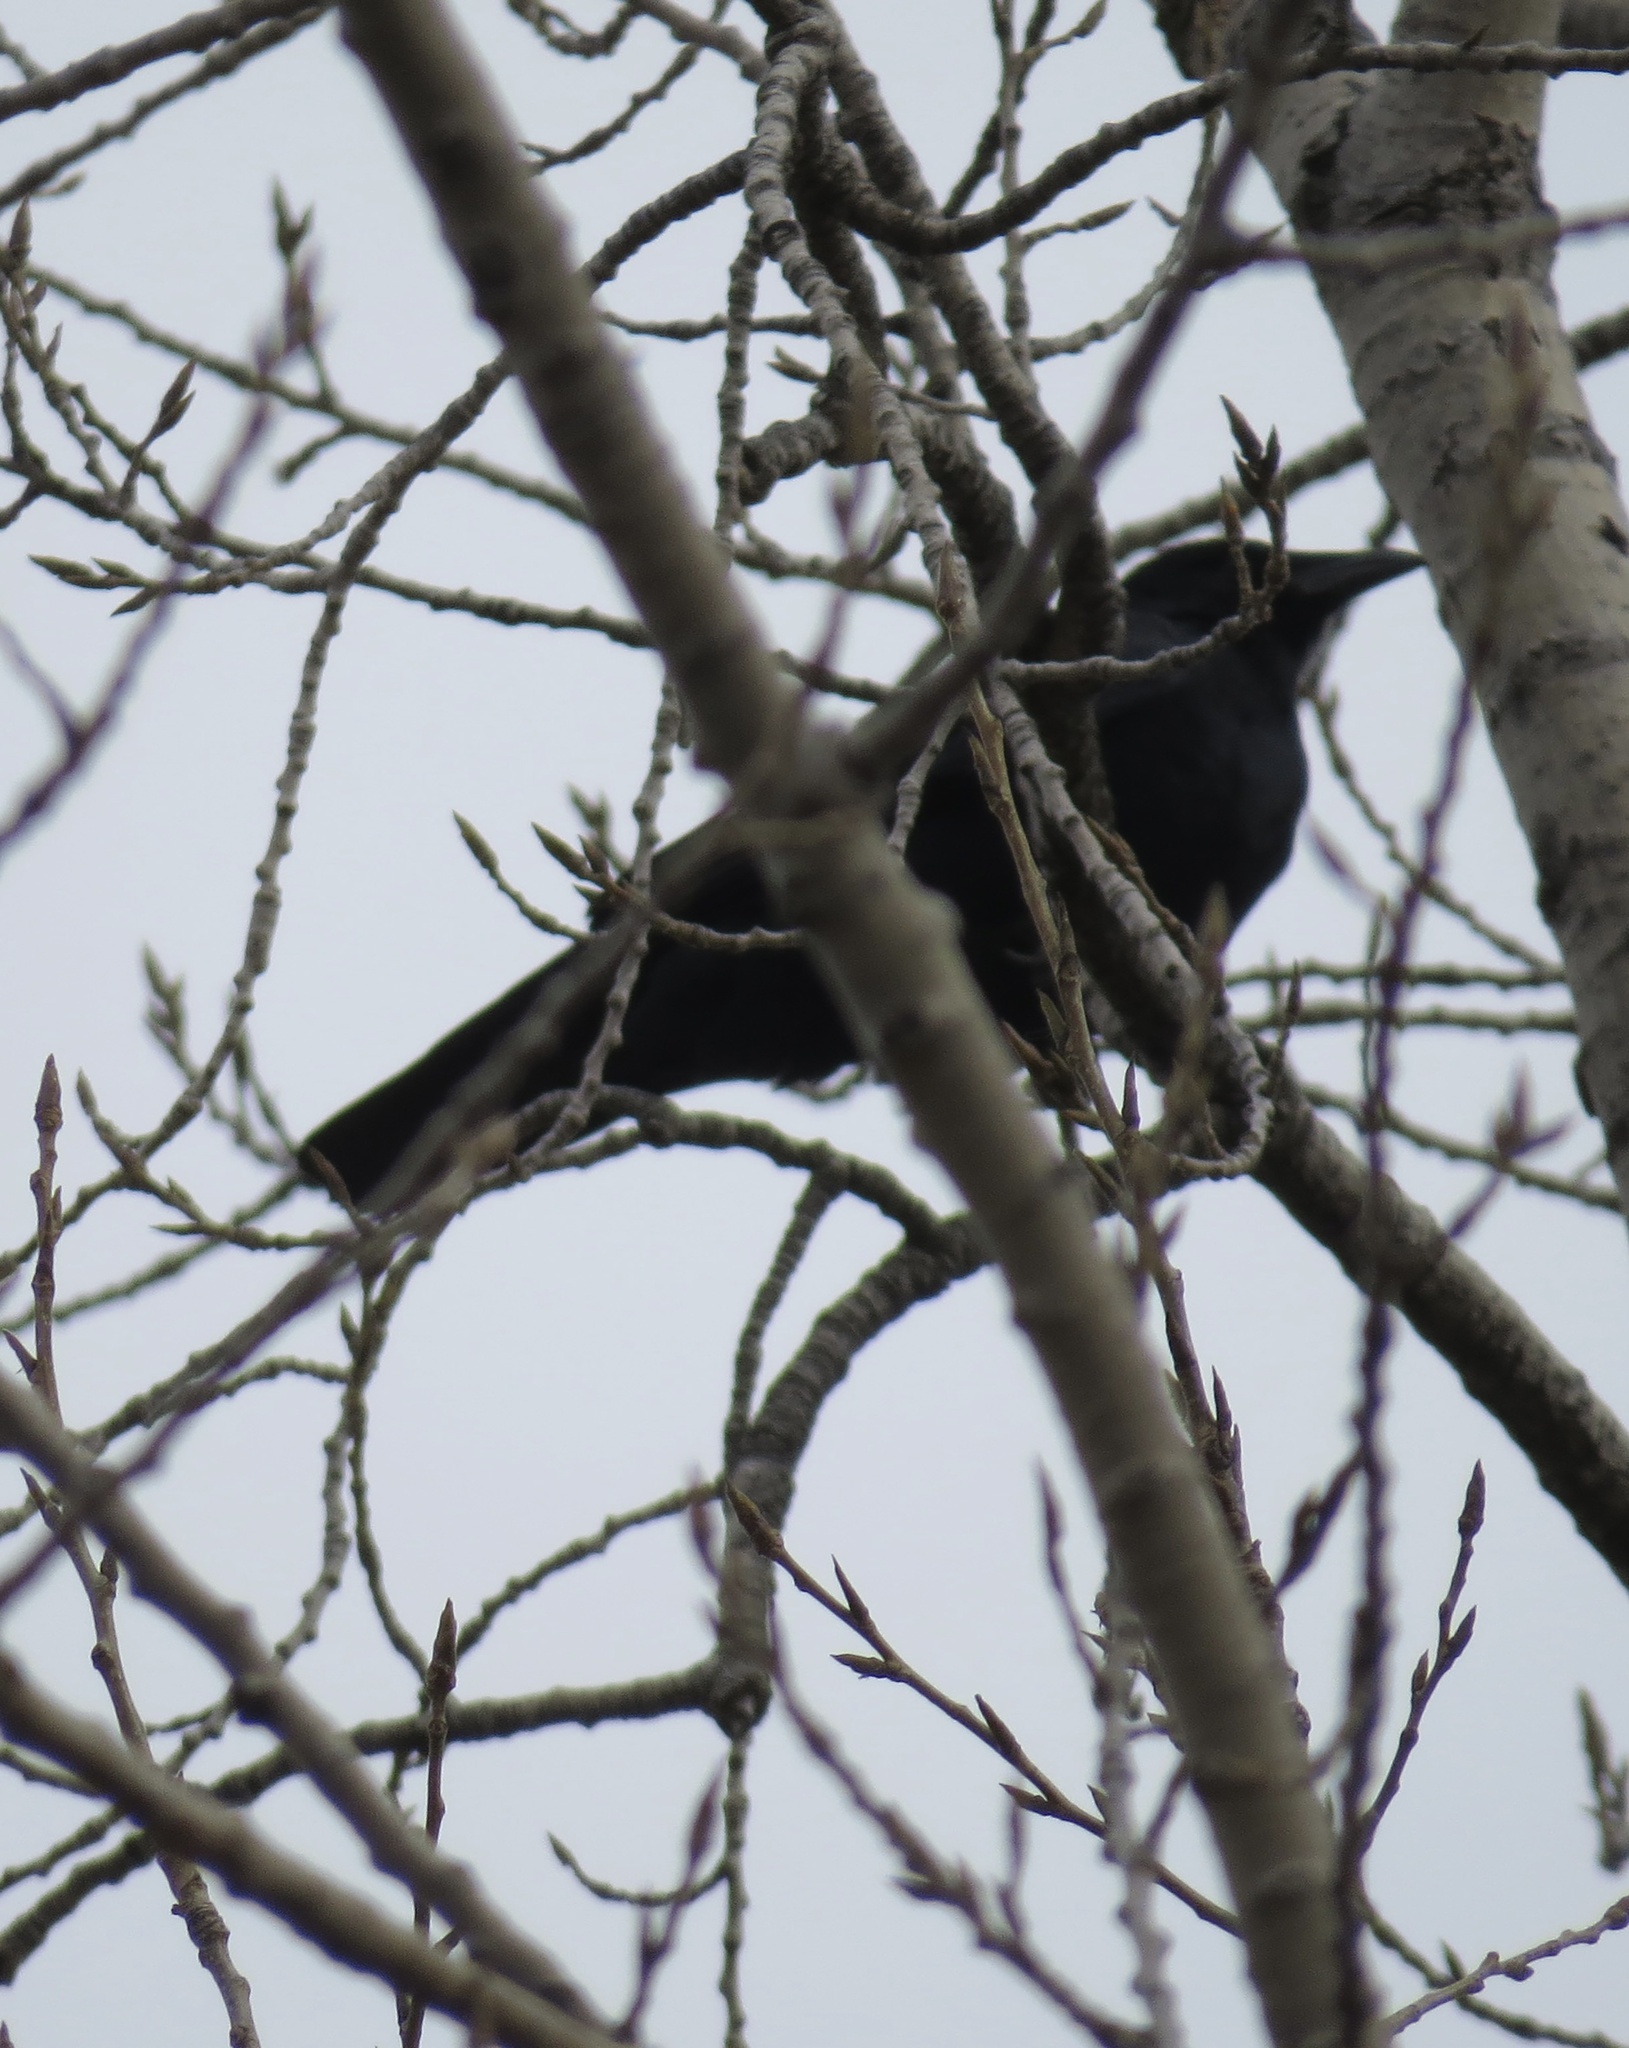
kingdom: Animalia
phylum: Chordata
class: Aves
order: Passeriformes
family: Corvidae
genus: Corvus
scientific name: Corvus ossifragus
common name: Fish crow
